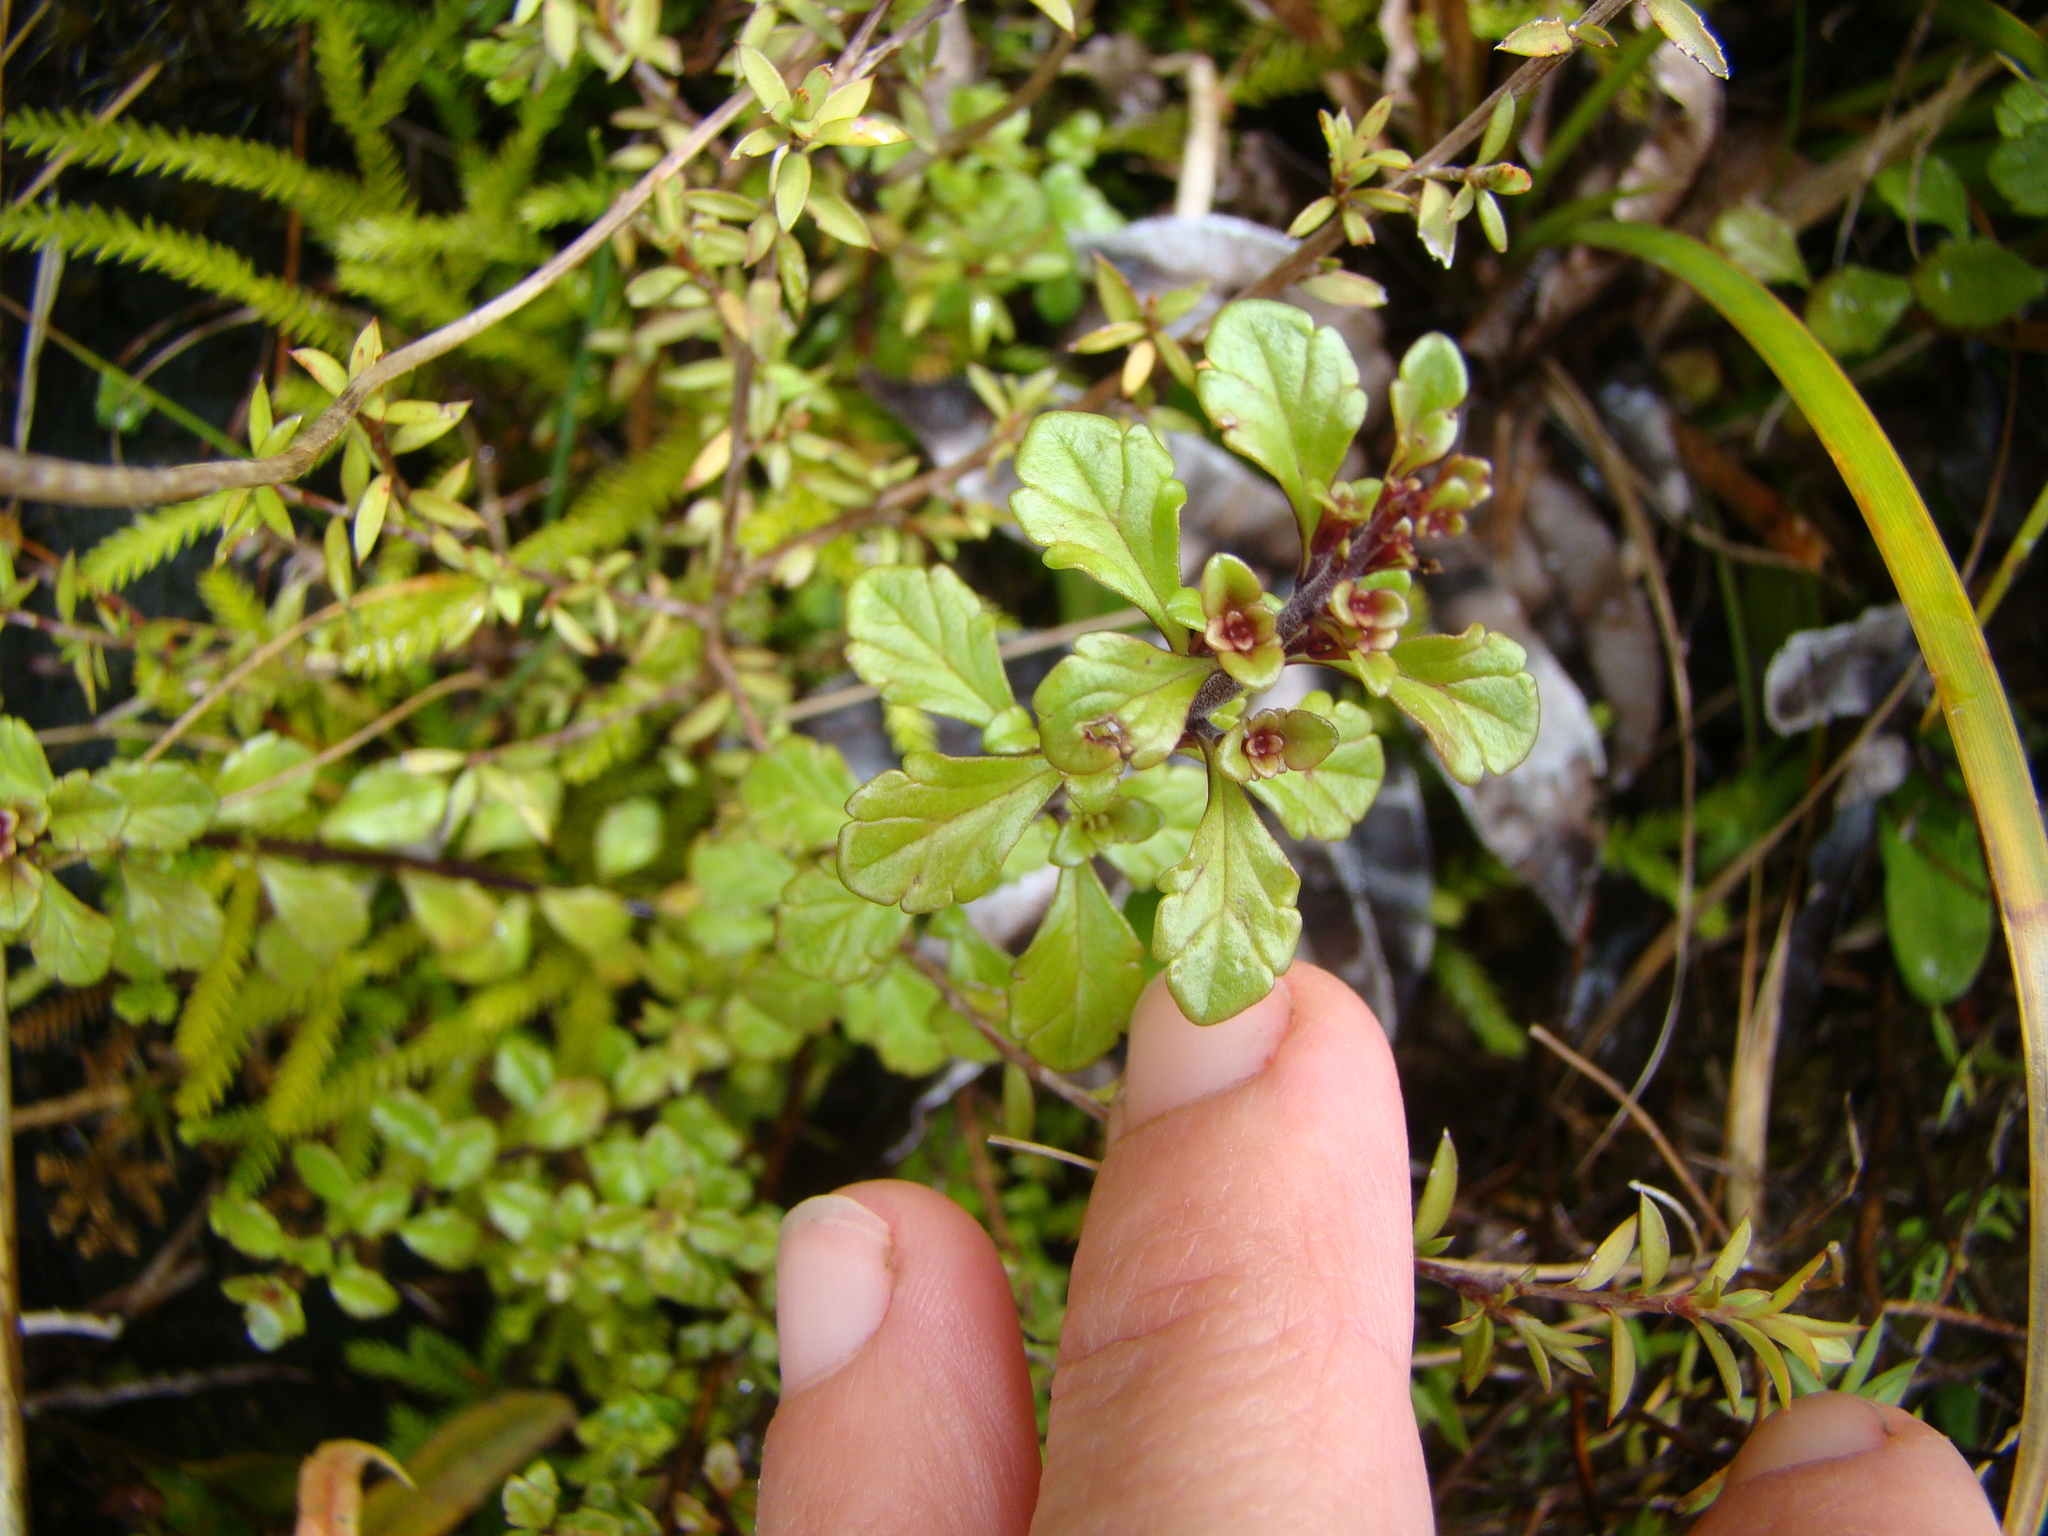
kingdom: Plantae
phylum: Tracheophyta
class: Magnoliopsida
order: Lamiales
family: Orobanchaceae
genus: Euphrasia
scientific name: Euphrasia cuneata
